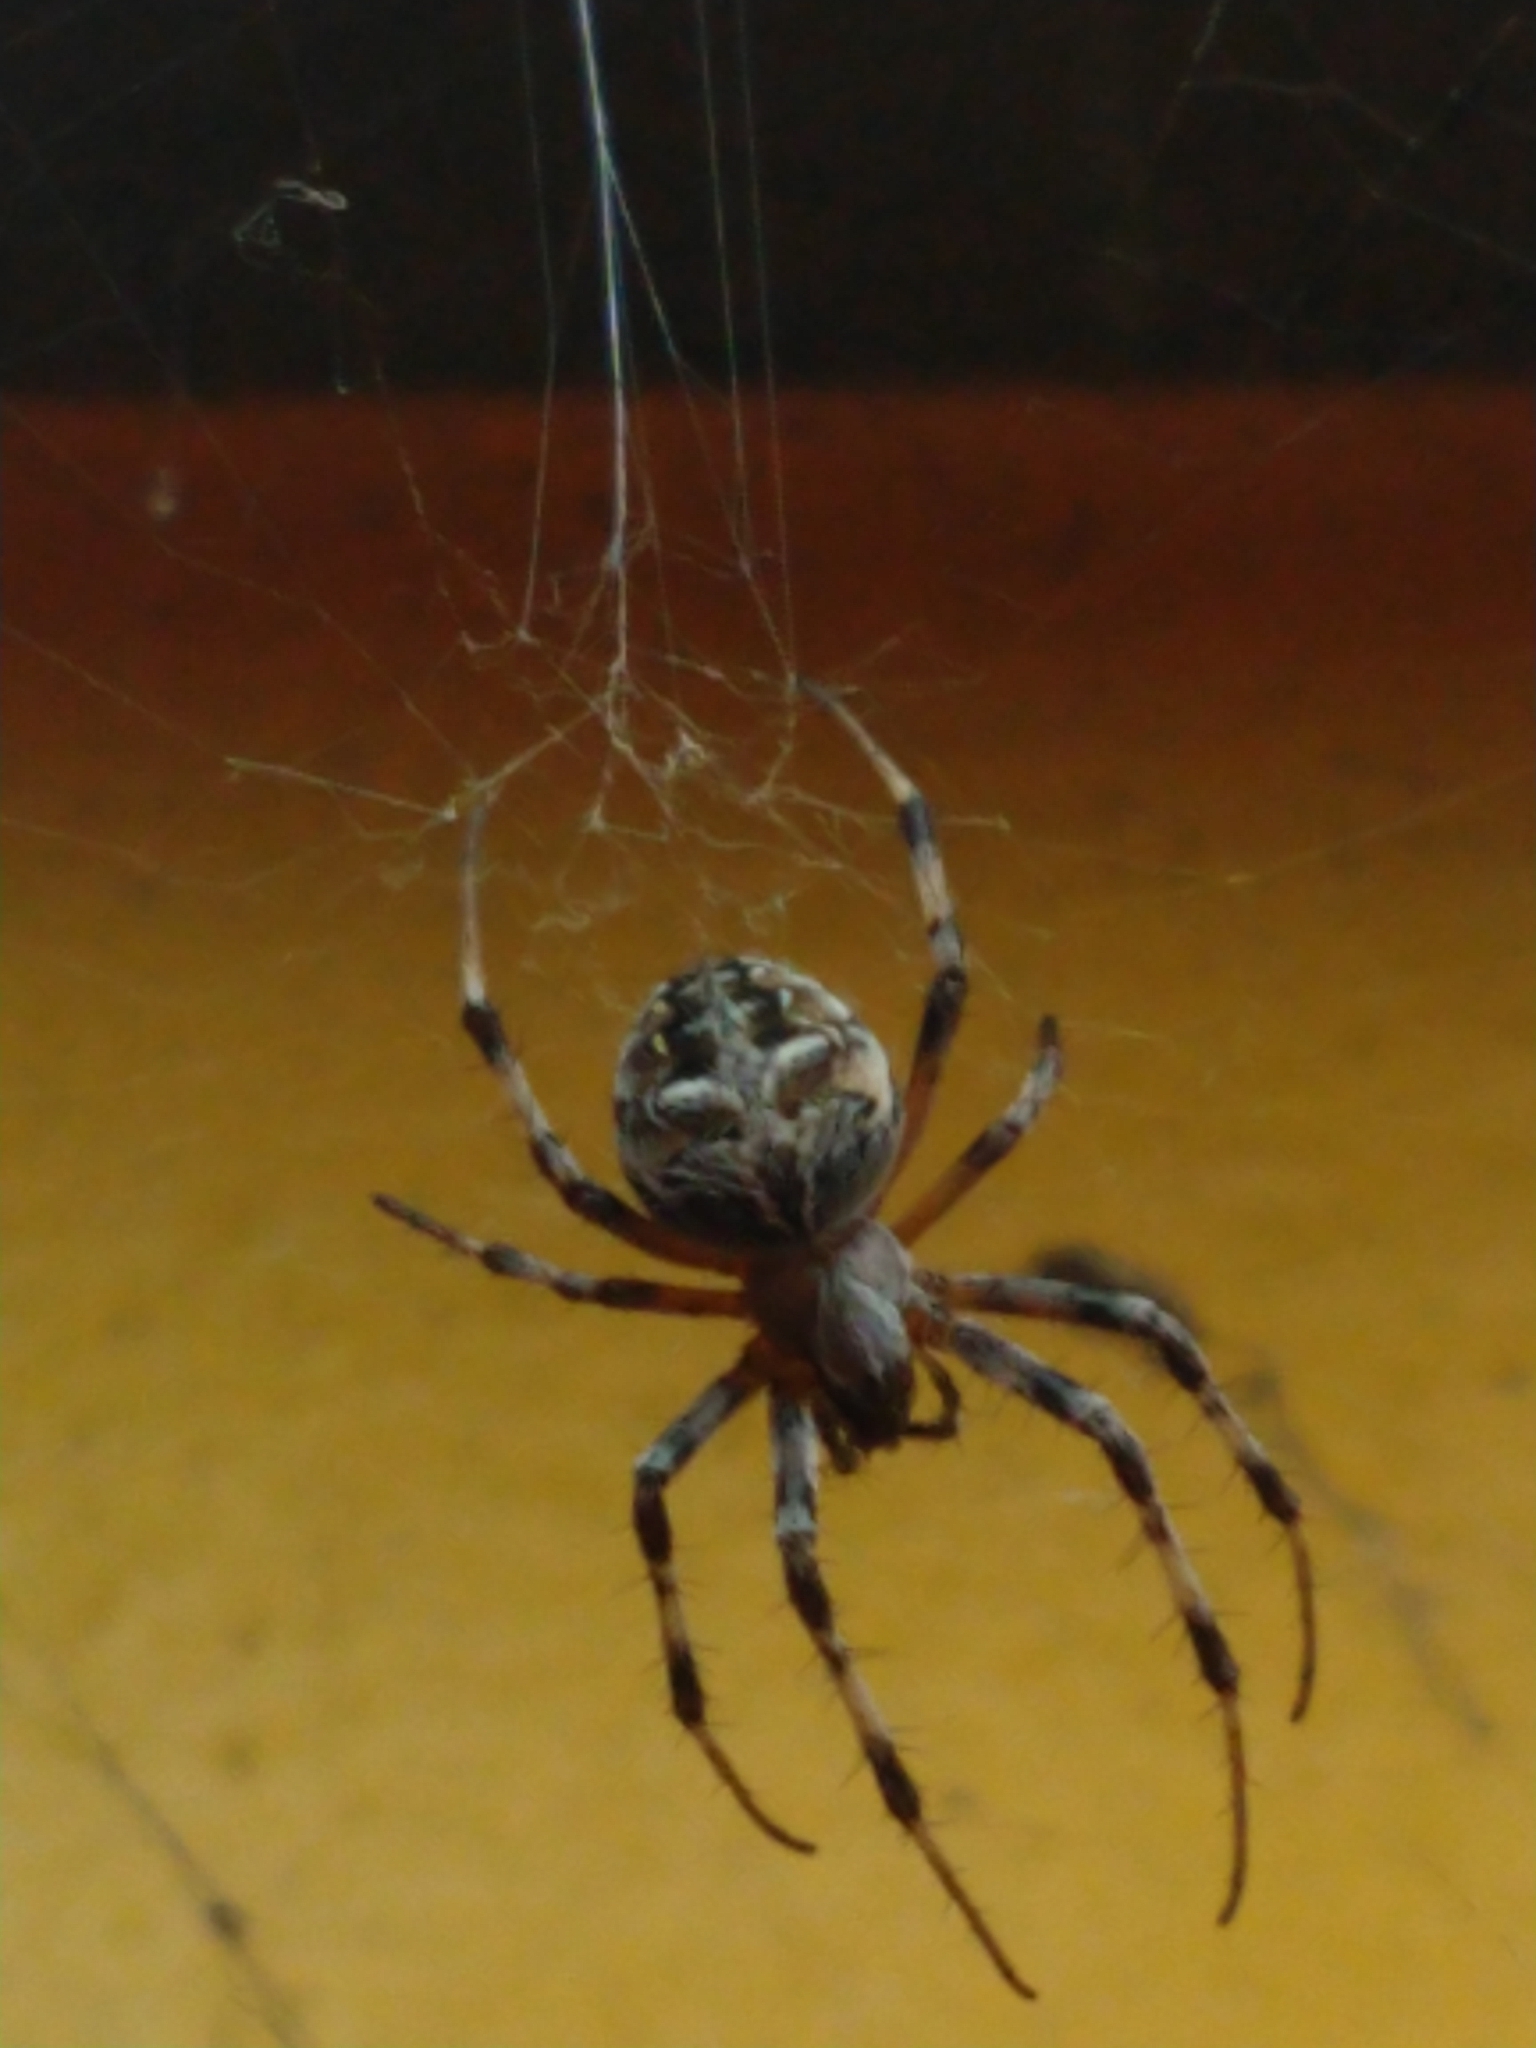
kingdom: Animalia
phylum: Arthropoda
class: Arachnida
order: Araneae
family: Araneidae
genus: Metepeira
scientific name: Metepeira
